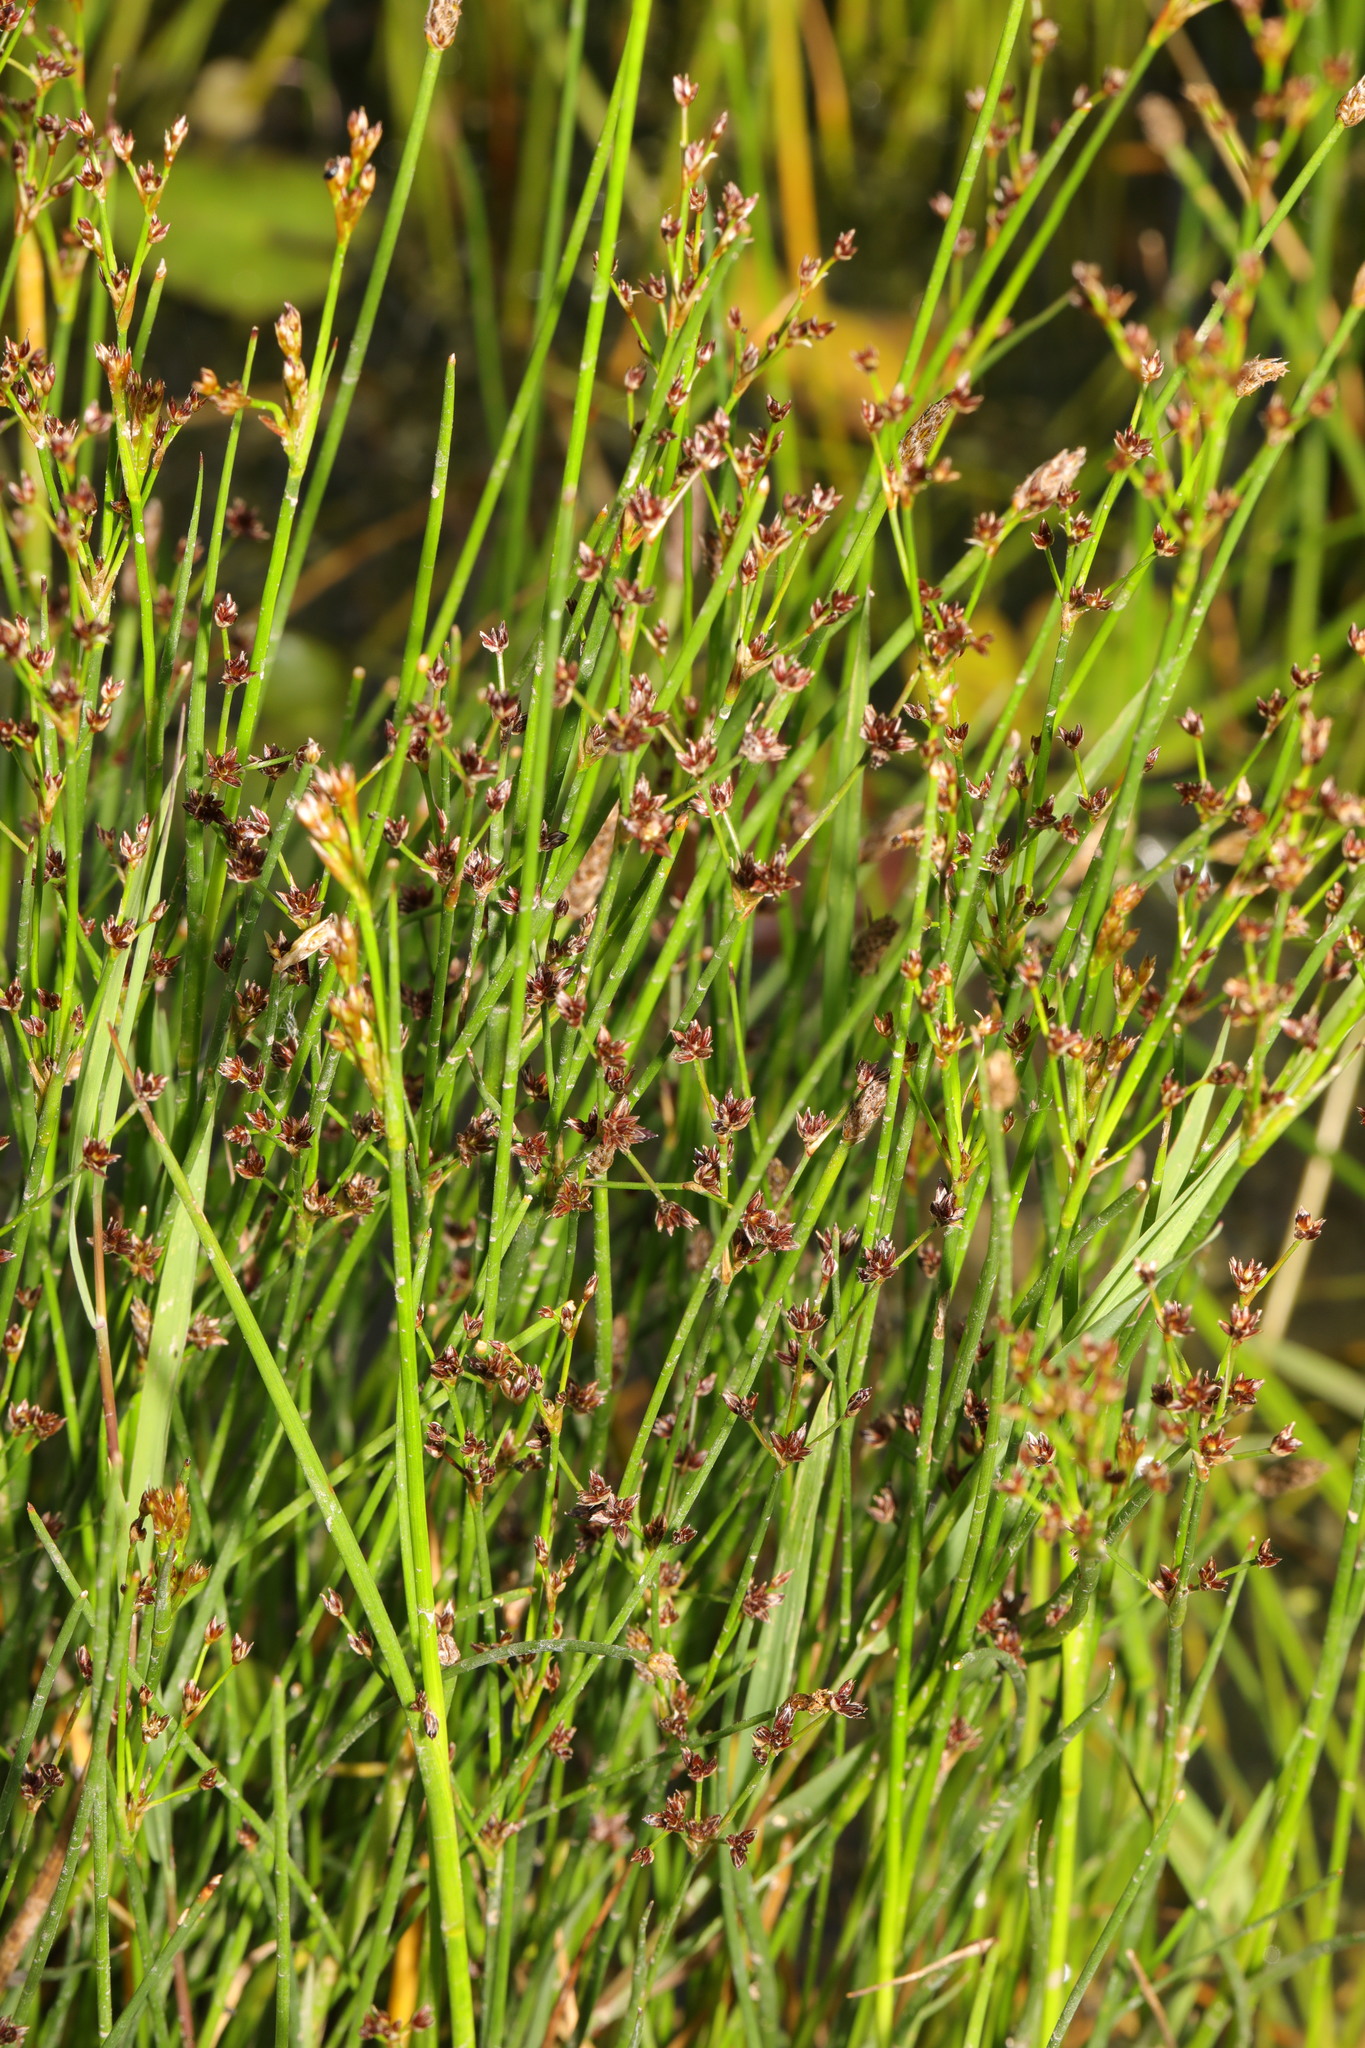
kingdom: Plantae
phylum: Tracheophyta
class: Liliopsida
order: Poales
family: Juncaceae
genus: Juncus
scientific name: Juncus articulatus
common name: Jointed rush
